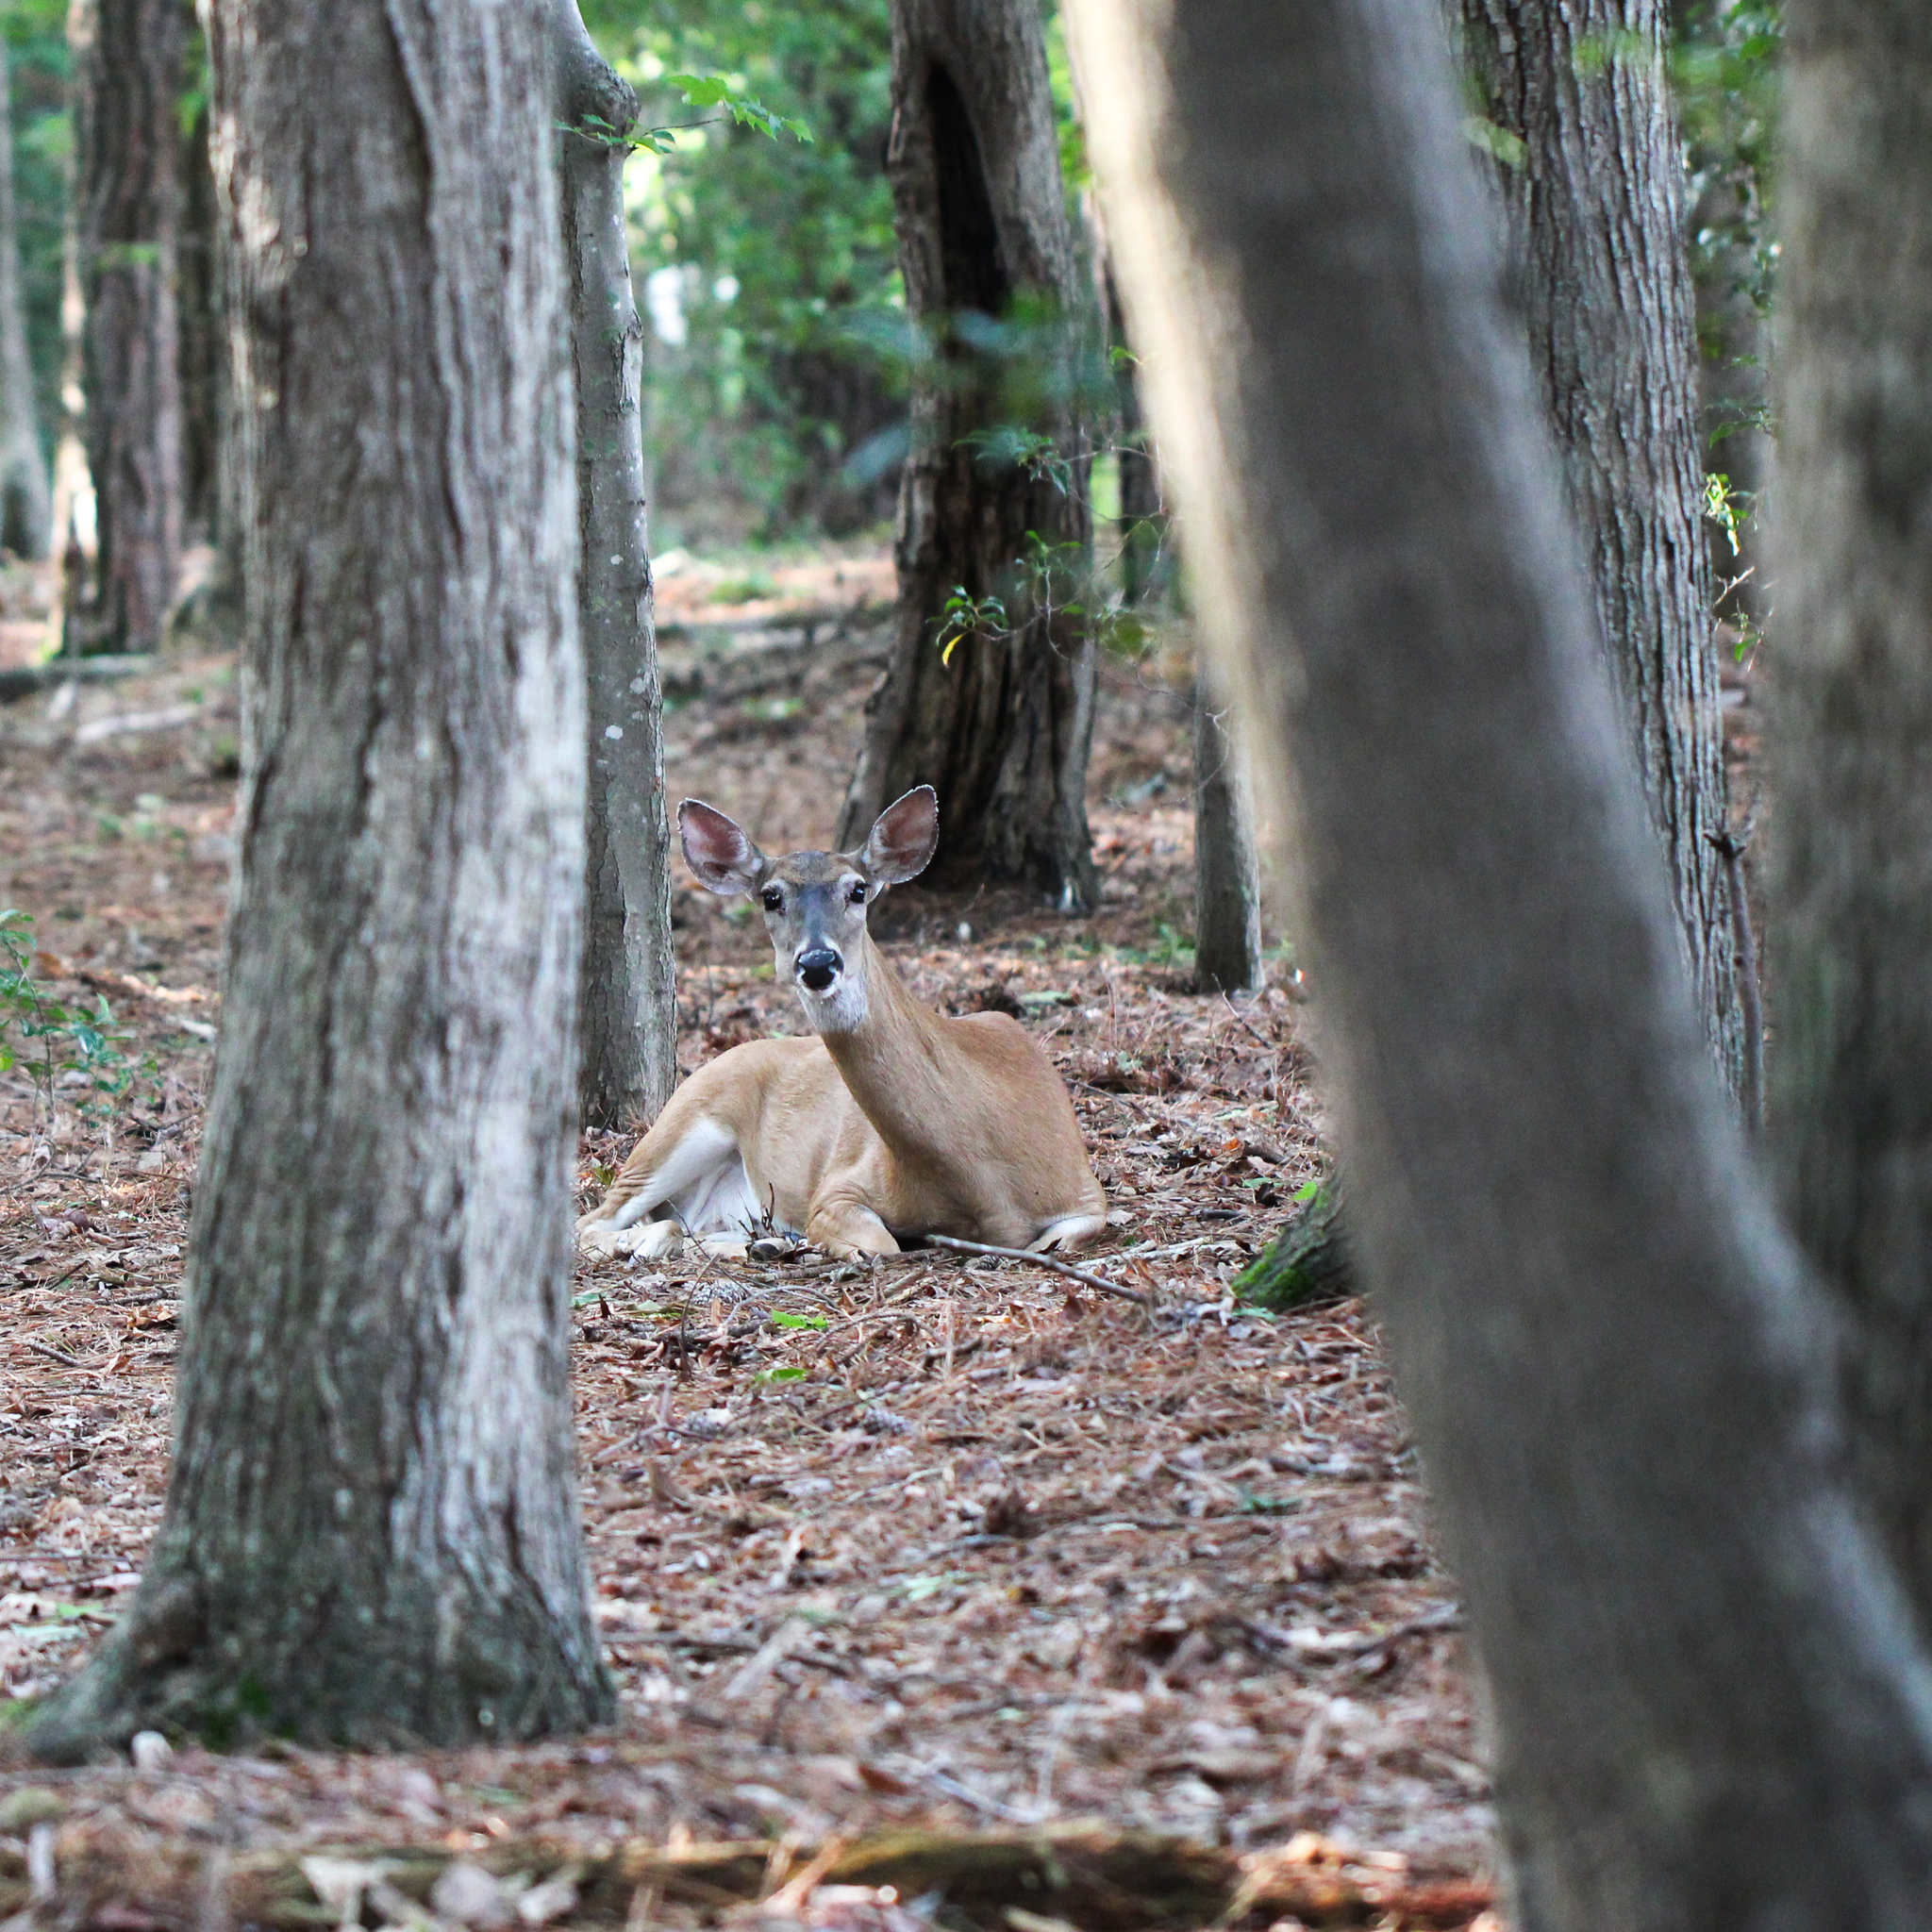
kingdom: Animalia
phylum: Chordata
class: Mammalia
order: Artiodactyla
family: Cervidae
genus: Odocoileus
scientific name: Odocoileus virginianus
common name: White-tailed deer
